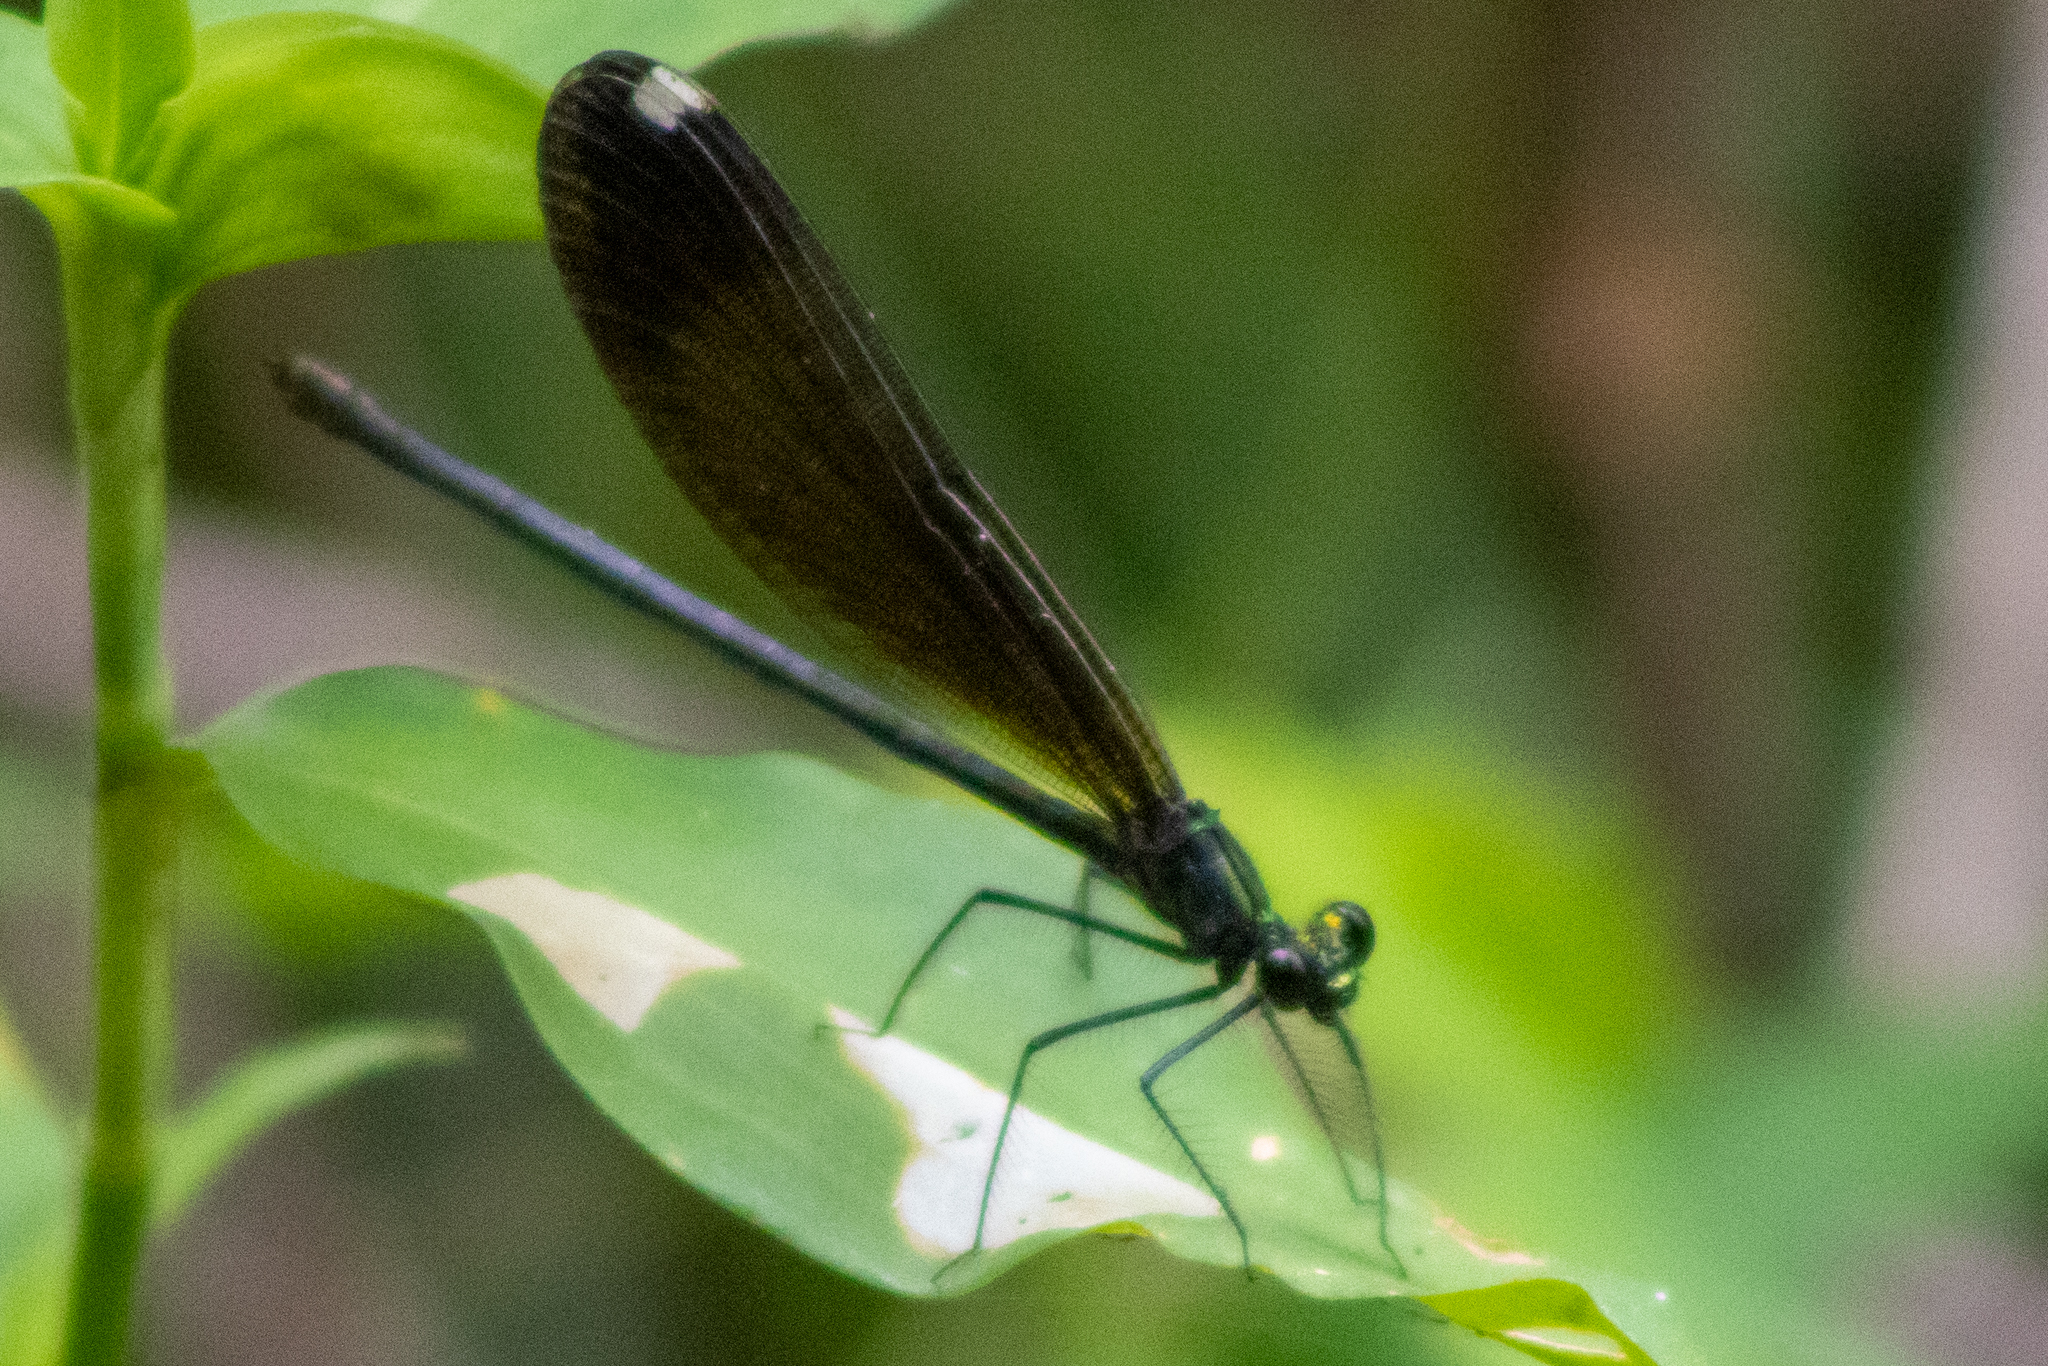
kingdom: Animalia
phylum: Arthropoda
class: Insecta
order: Odonata
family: Calopterygidae
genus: Calopteryx
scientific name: Calopteryx maculata
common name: Ebony jewelwing
